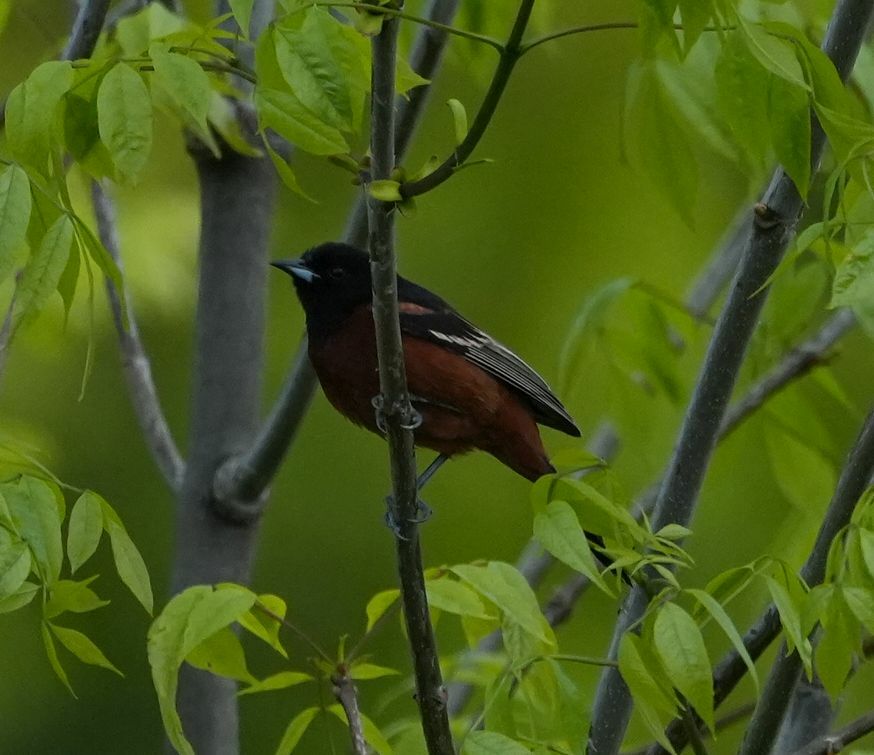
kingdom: Animalia
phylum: Chordata
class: Aves
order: Passeriformes
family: Icteridae
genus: Icterus
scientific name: Icterus spurius
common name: Orchard oriole
